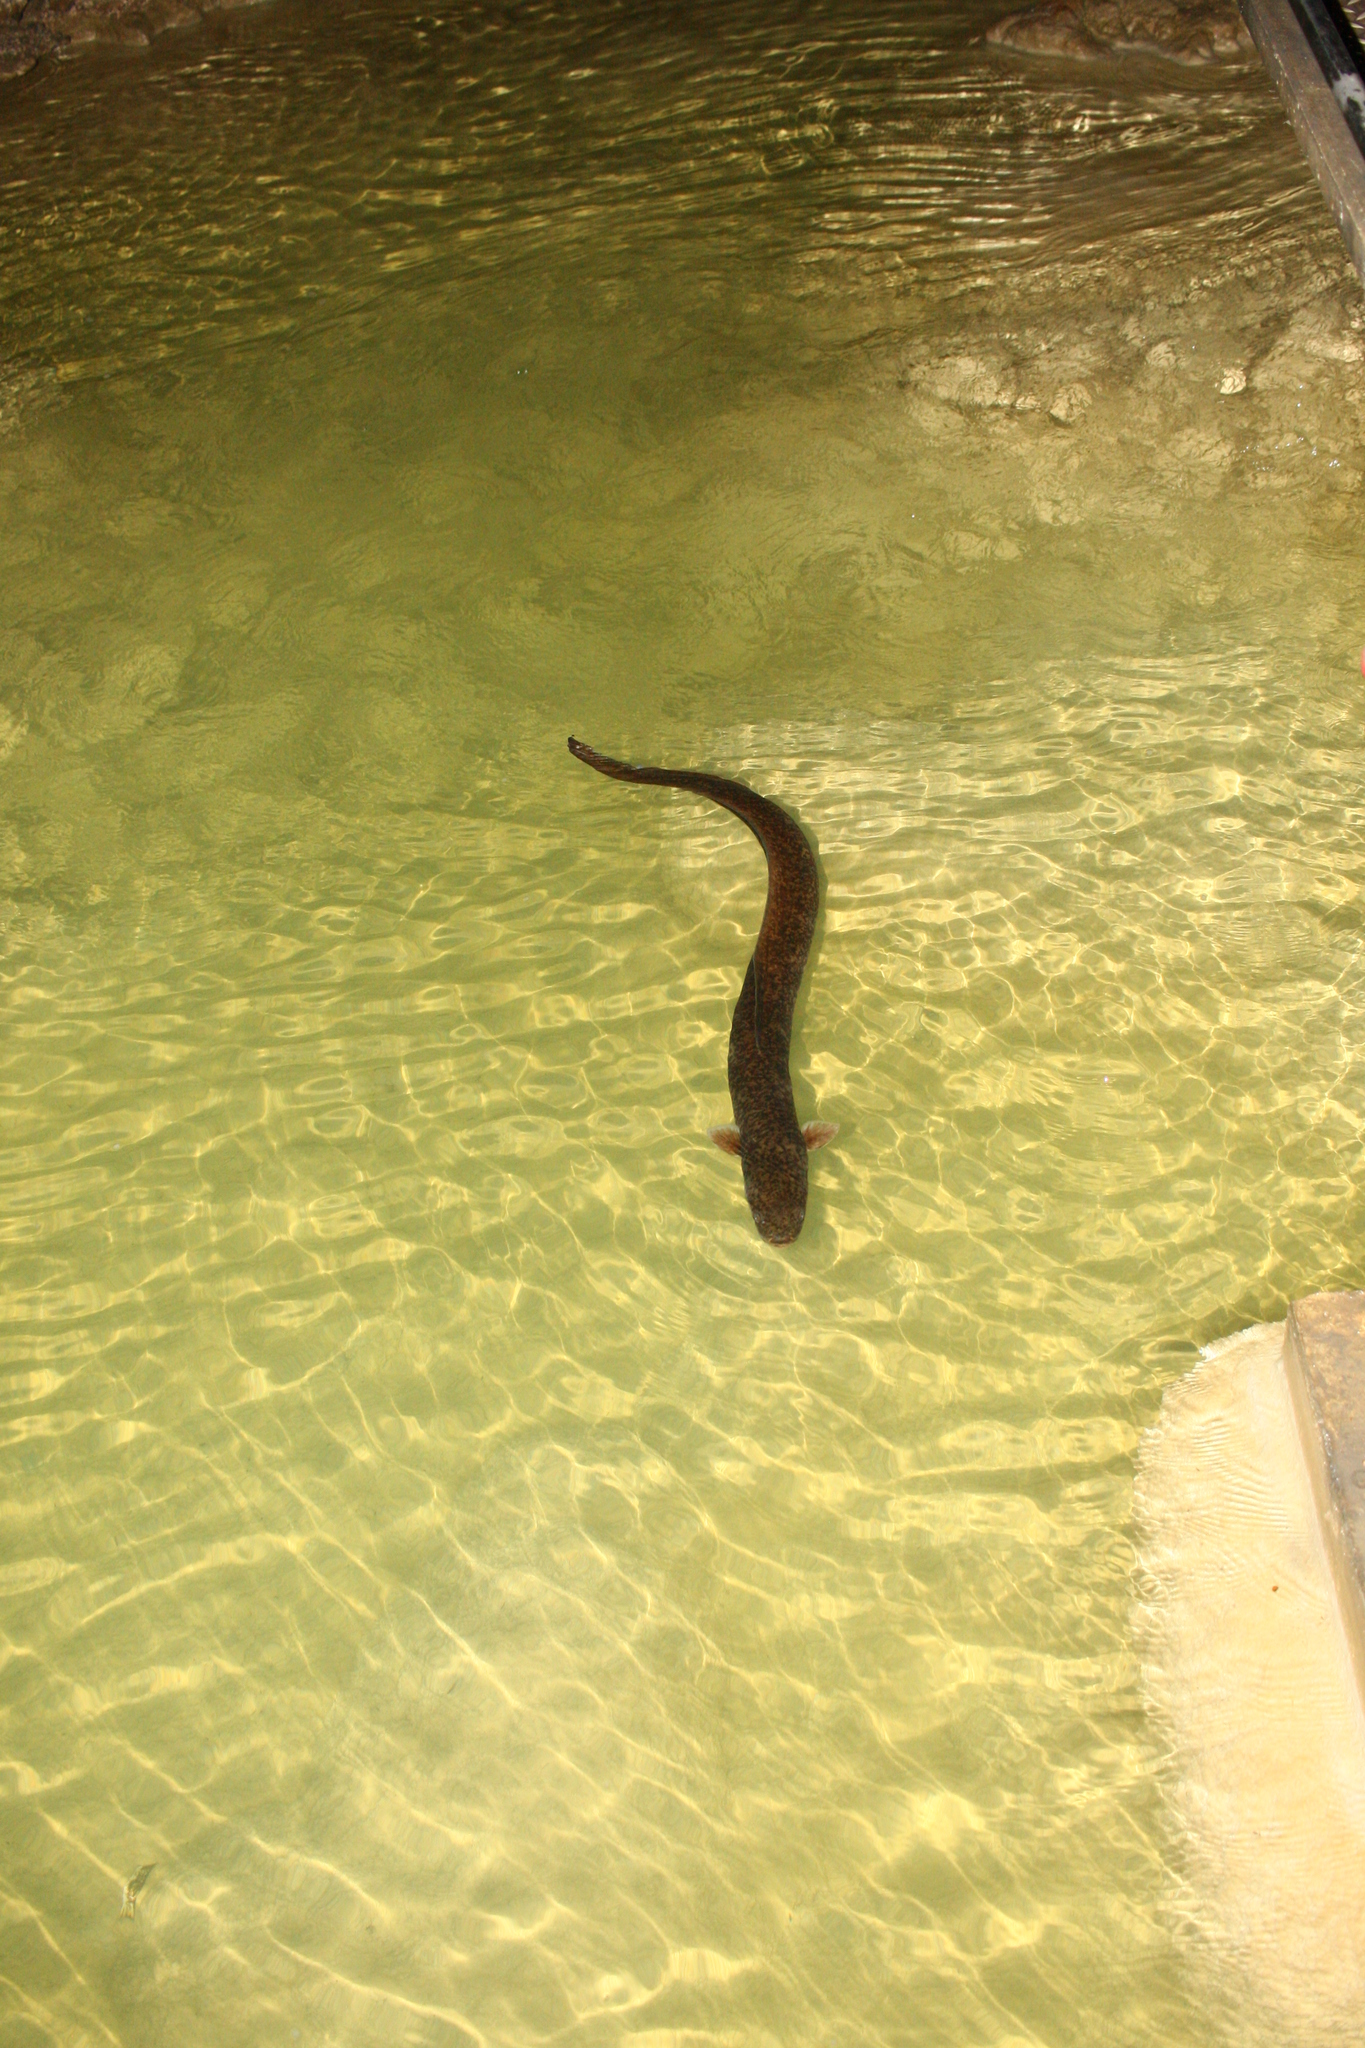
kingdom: Animalia
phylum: Chordata
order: Anguilliformes
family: Anguillidae
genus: Anguilla
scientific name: Anguilla marmorata
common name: Giant mottled eel
